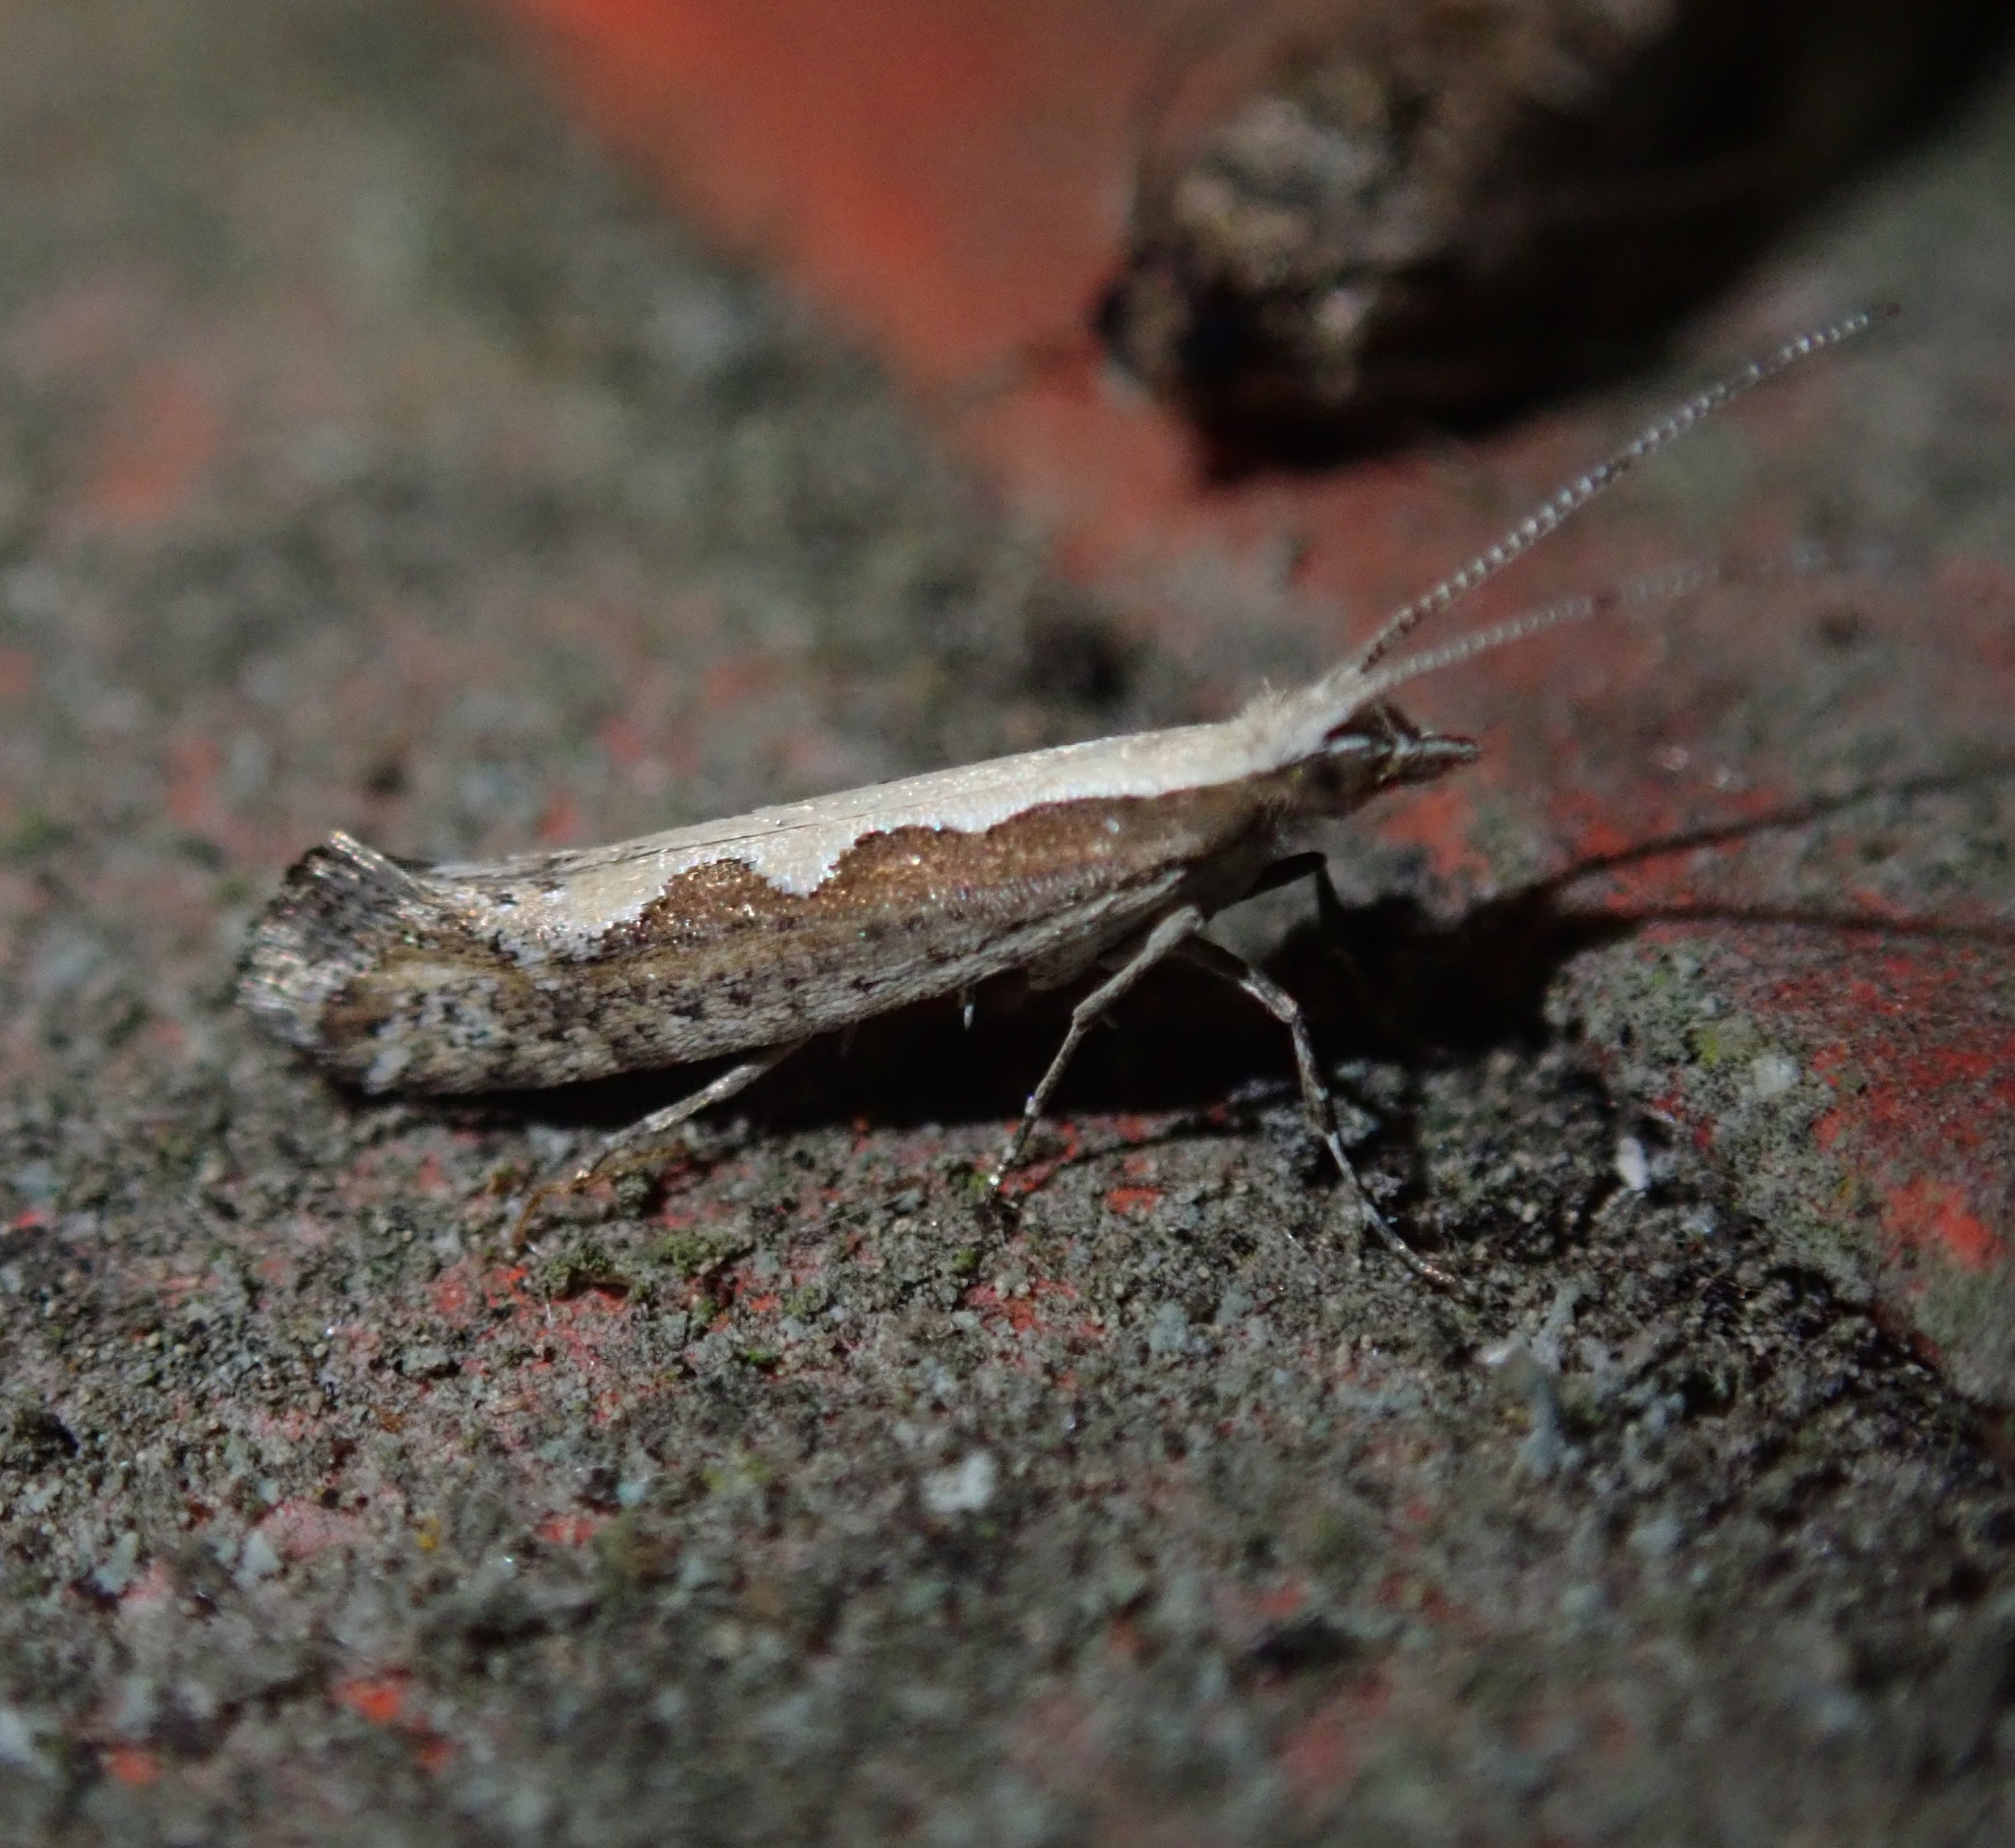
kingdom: Animalia
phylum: Arthropoda
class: Insecta
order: Lepidoptera
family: Plutellidae
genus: Plutella
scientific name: Plutella xylostella
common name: Diamond-back moth
